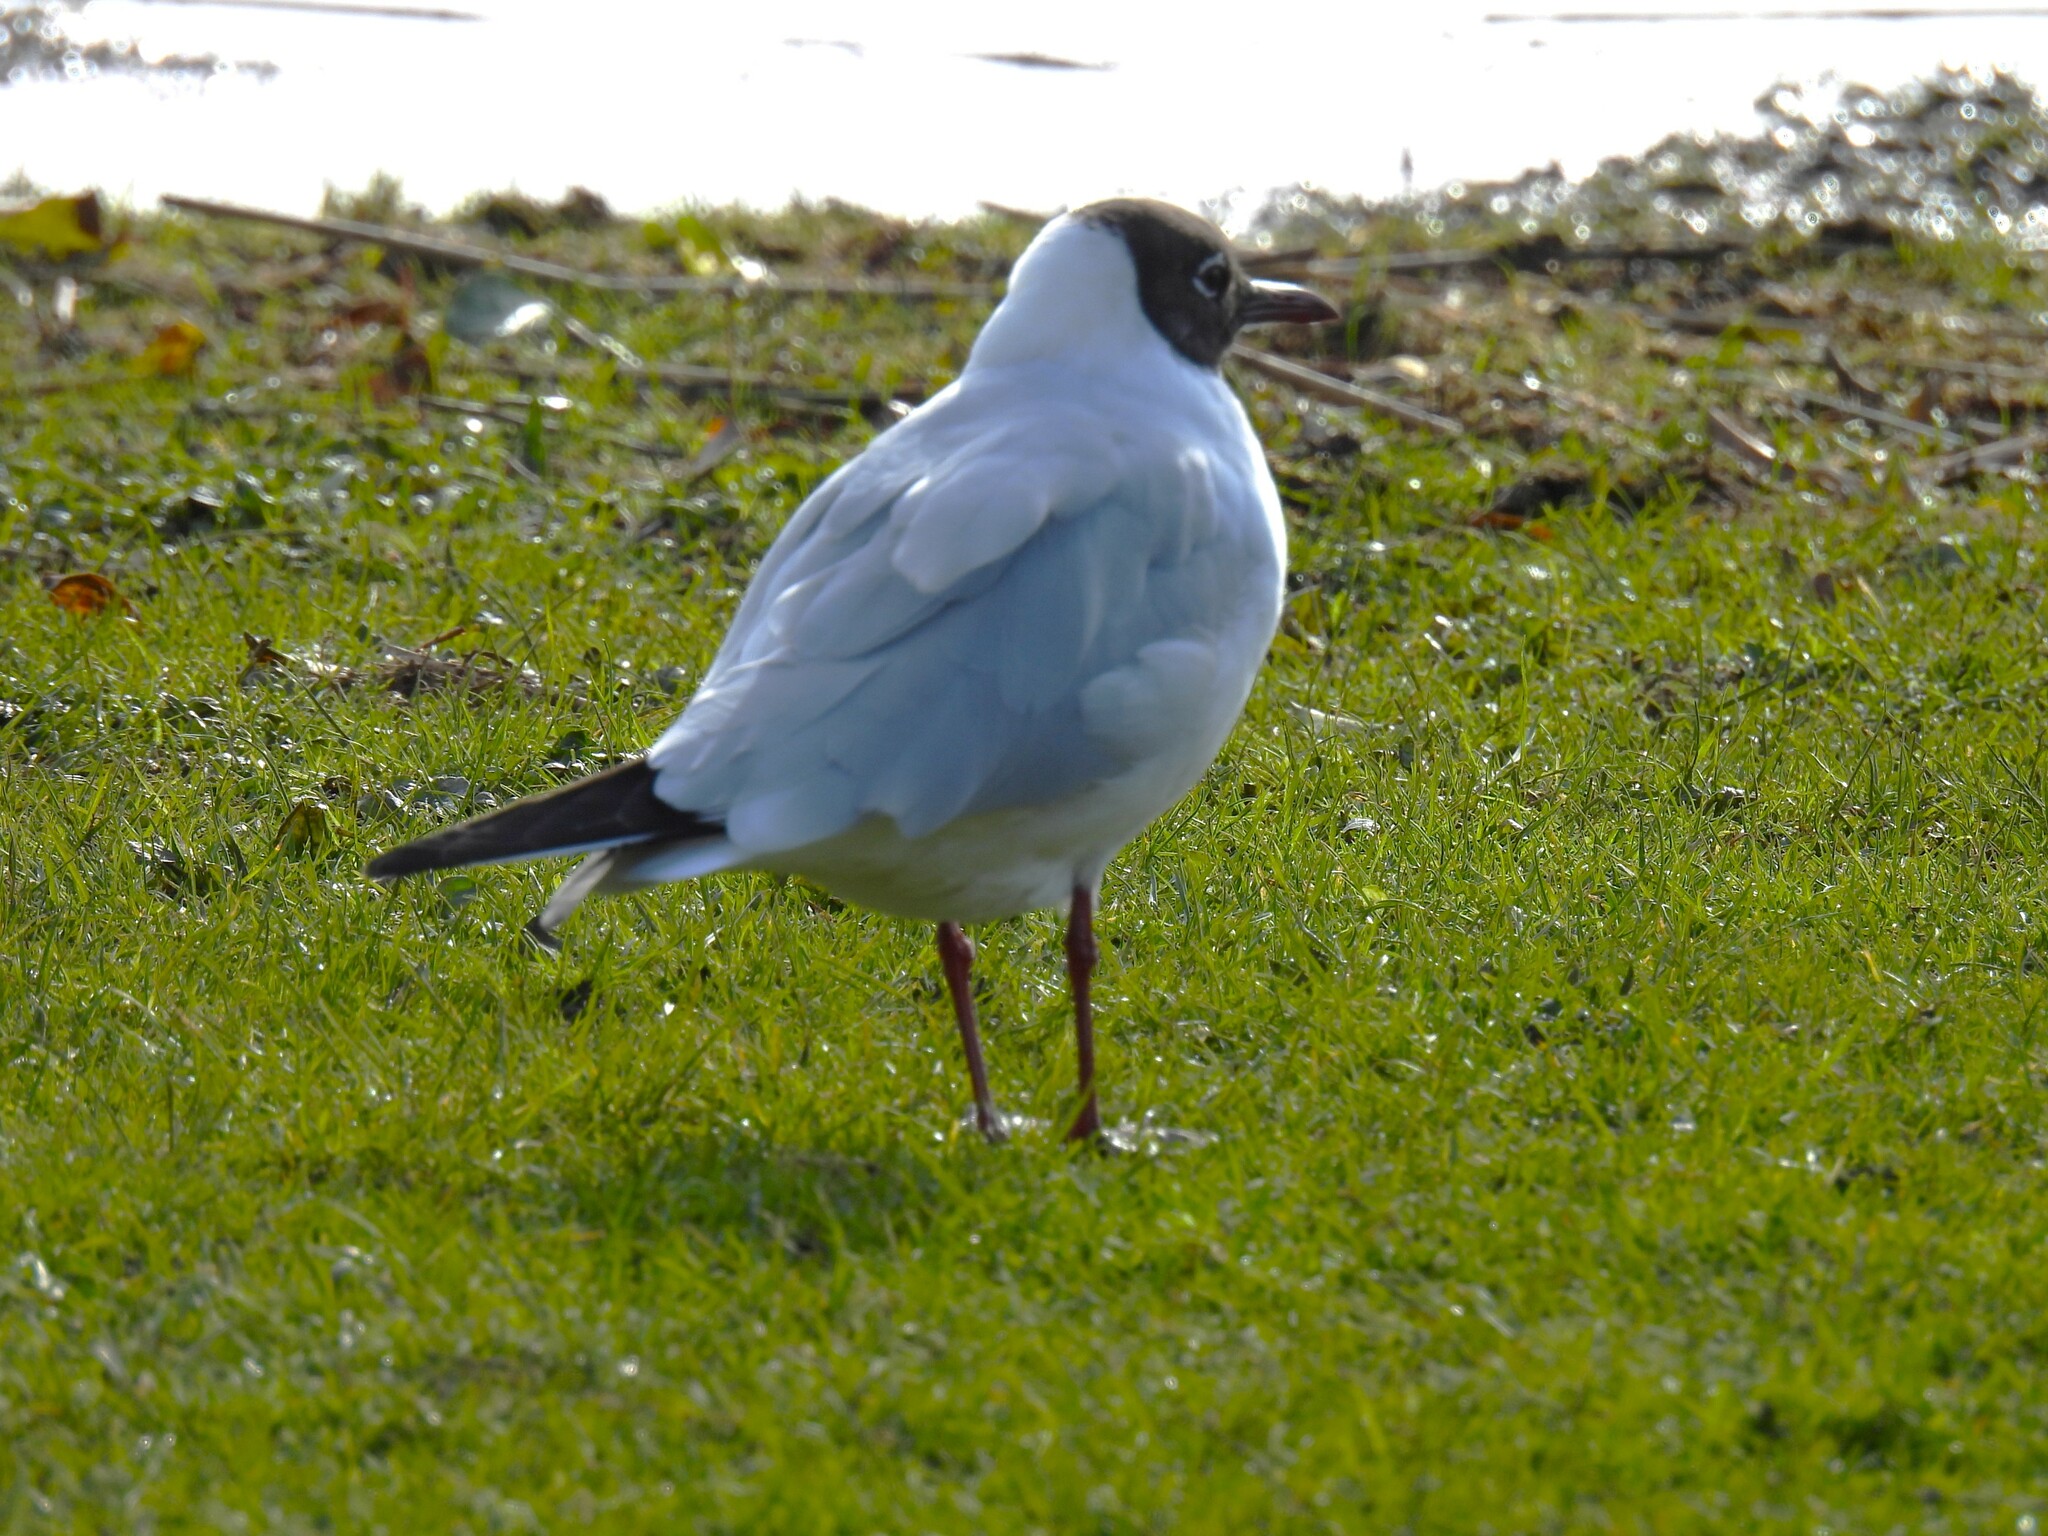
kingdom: Animalia
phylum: Chordata
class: Aves
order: Charadriiformes
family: Laridae
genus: Chroicocephalus
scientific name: Chroicocephalus ridibundus
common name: Black-headed gull
